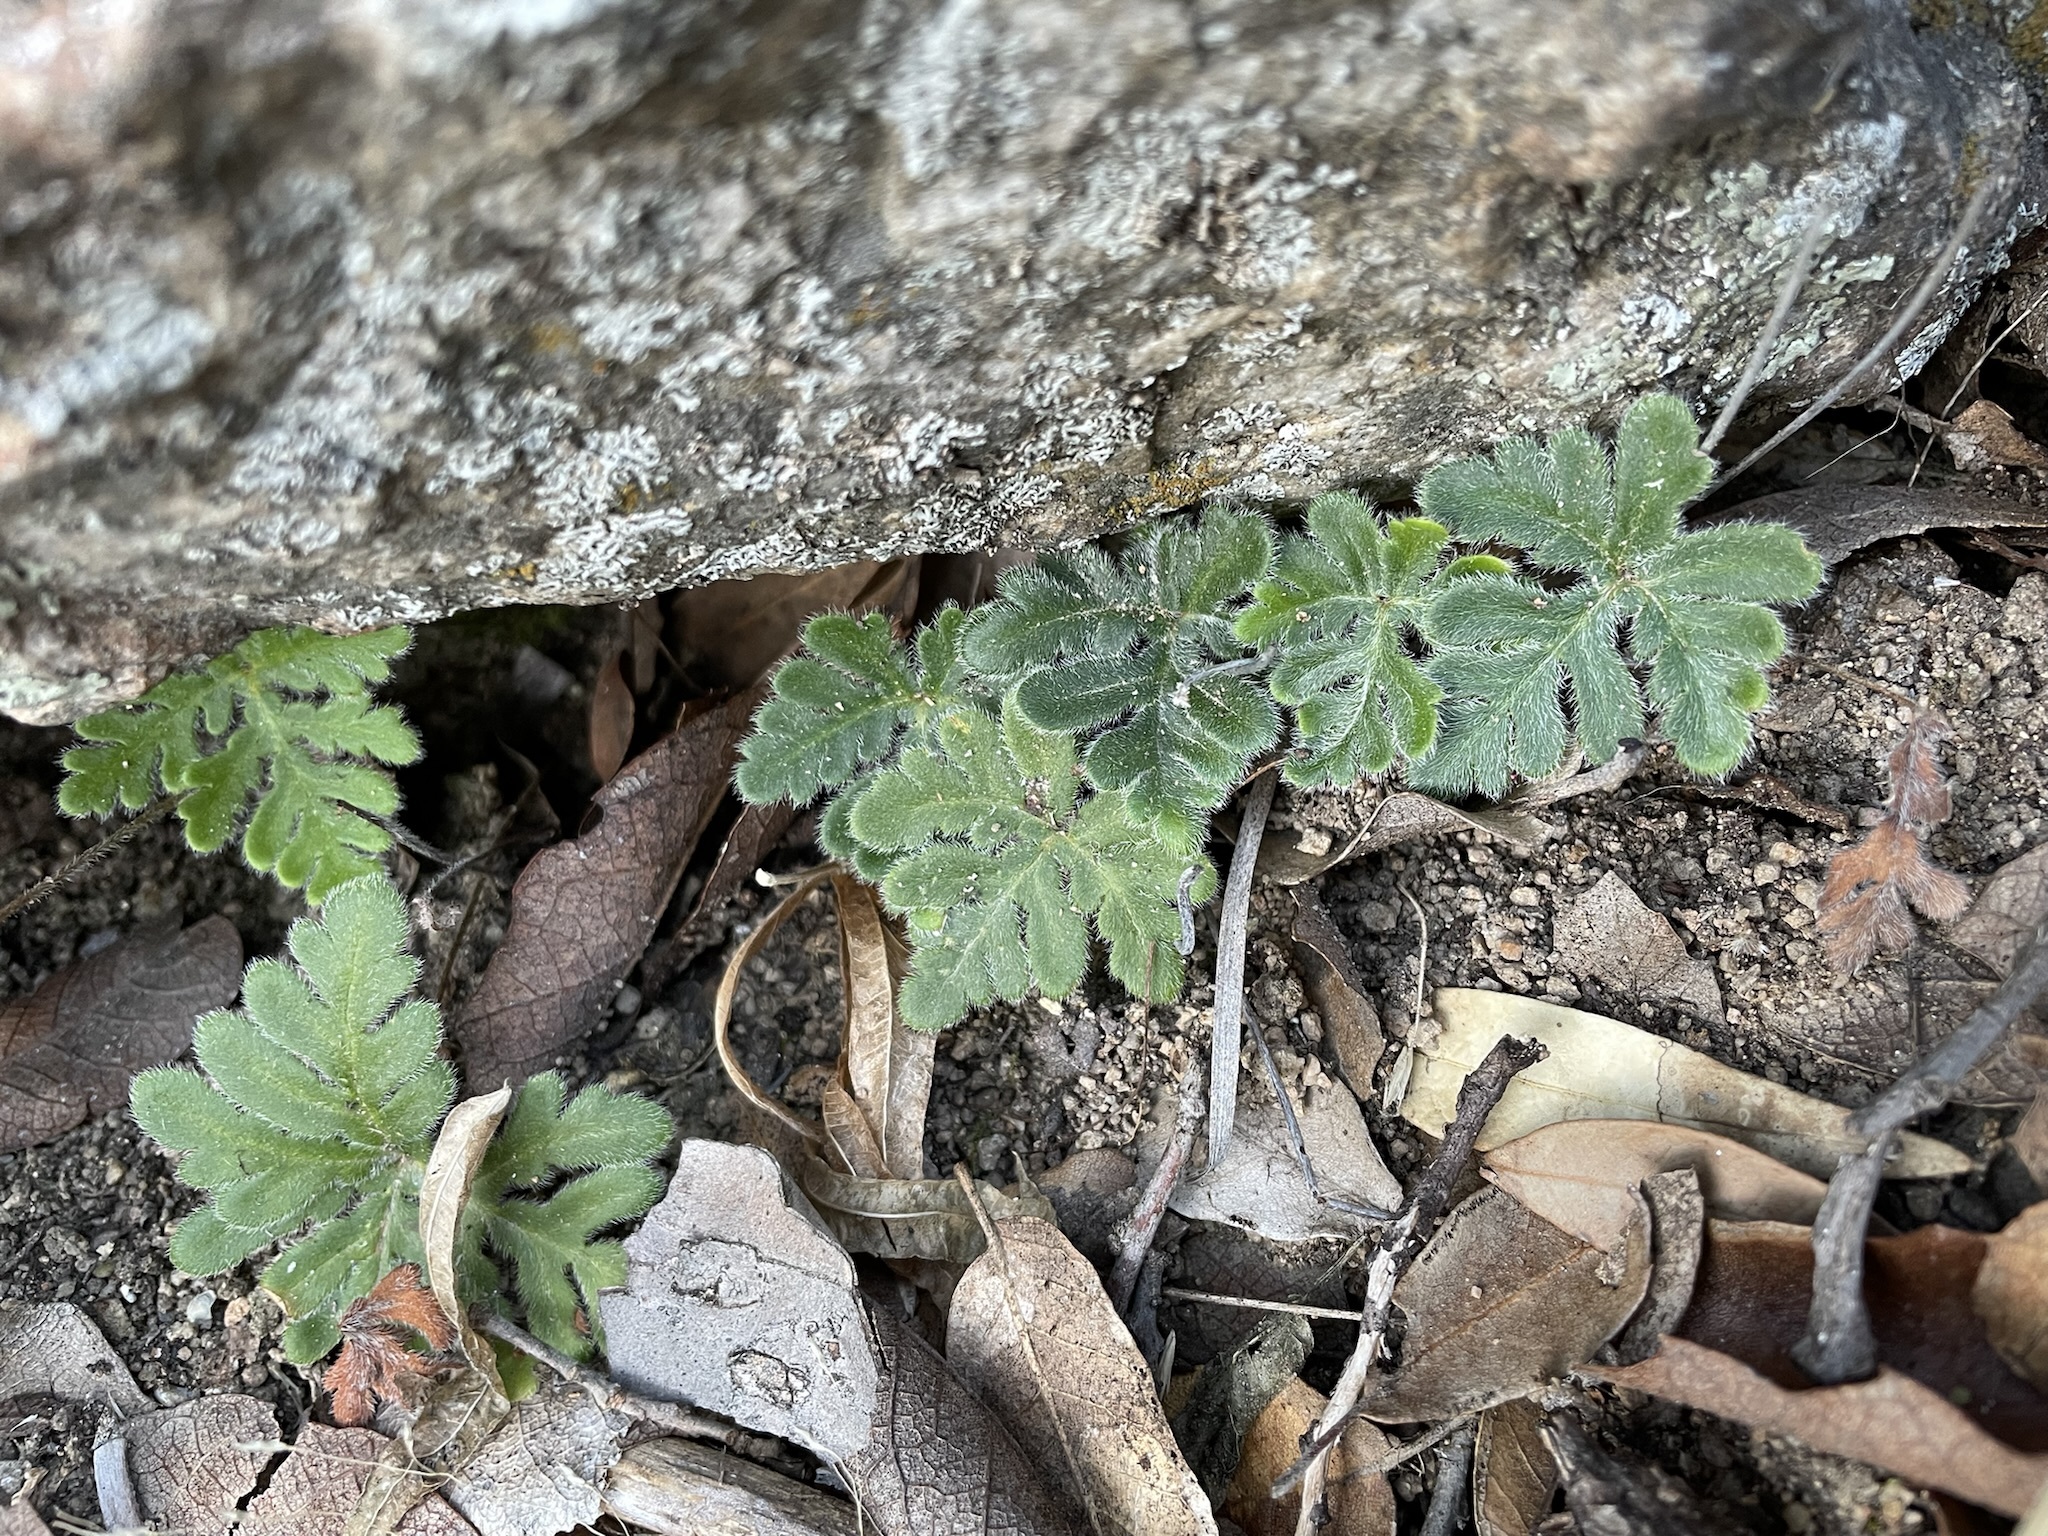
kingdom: Plantae
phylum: Tracheophyta
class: Polypodiopsida
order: Polypodiales
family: Pteridaceae
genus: Bommeria
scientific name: Bommeria hispida
